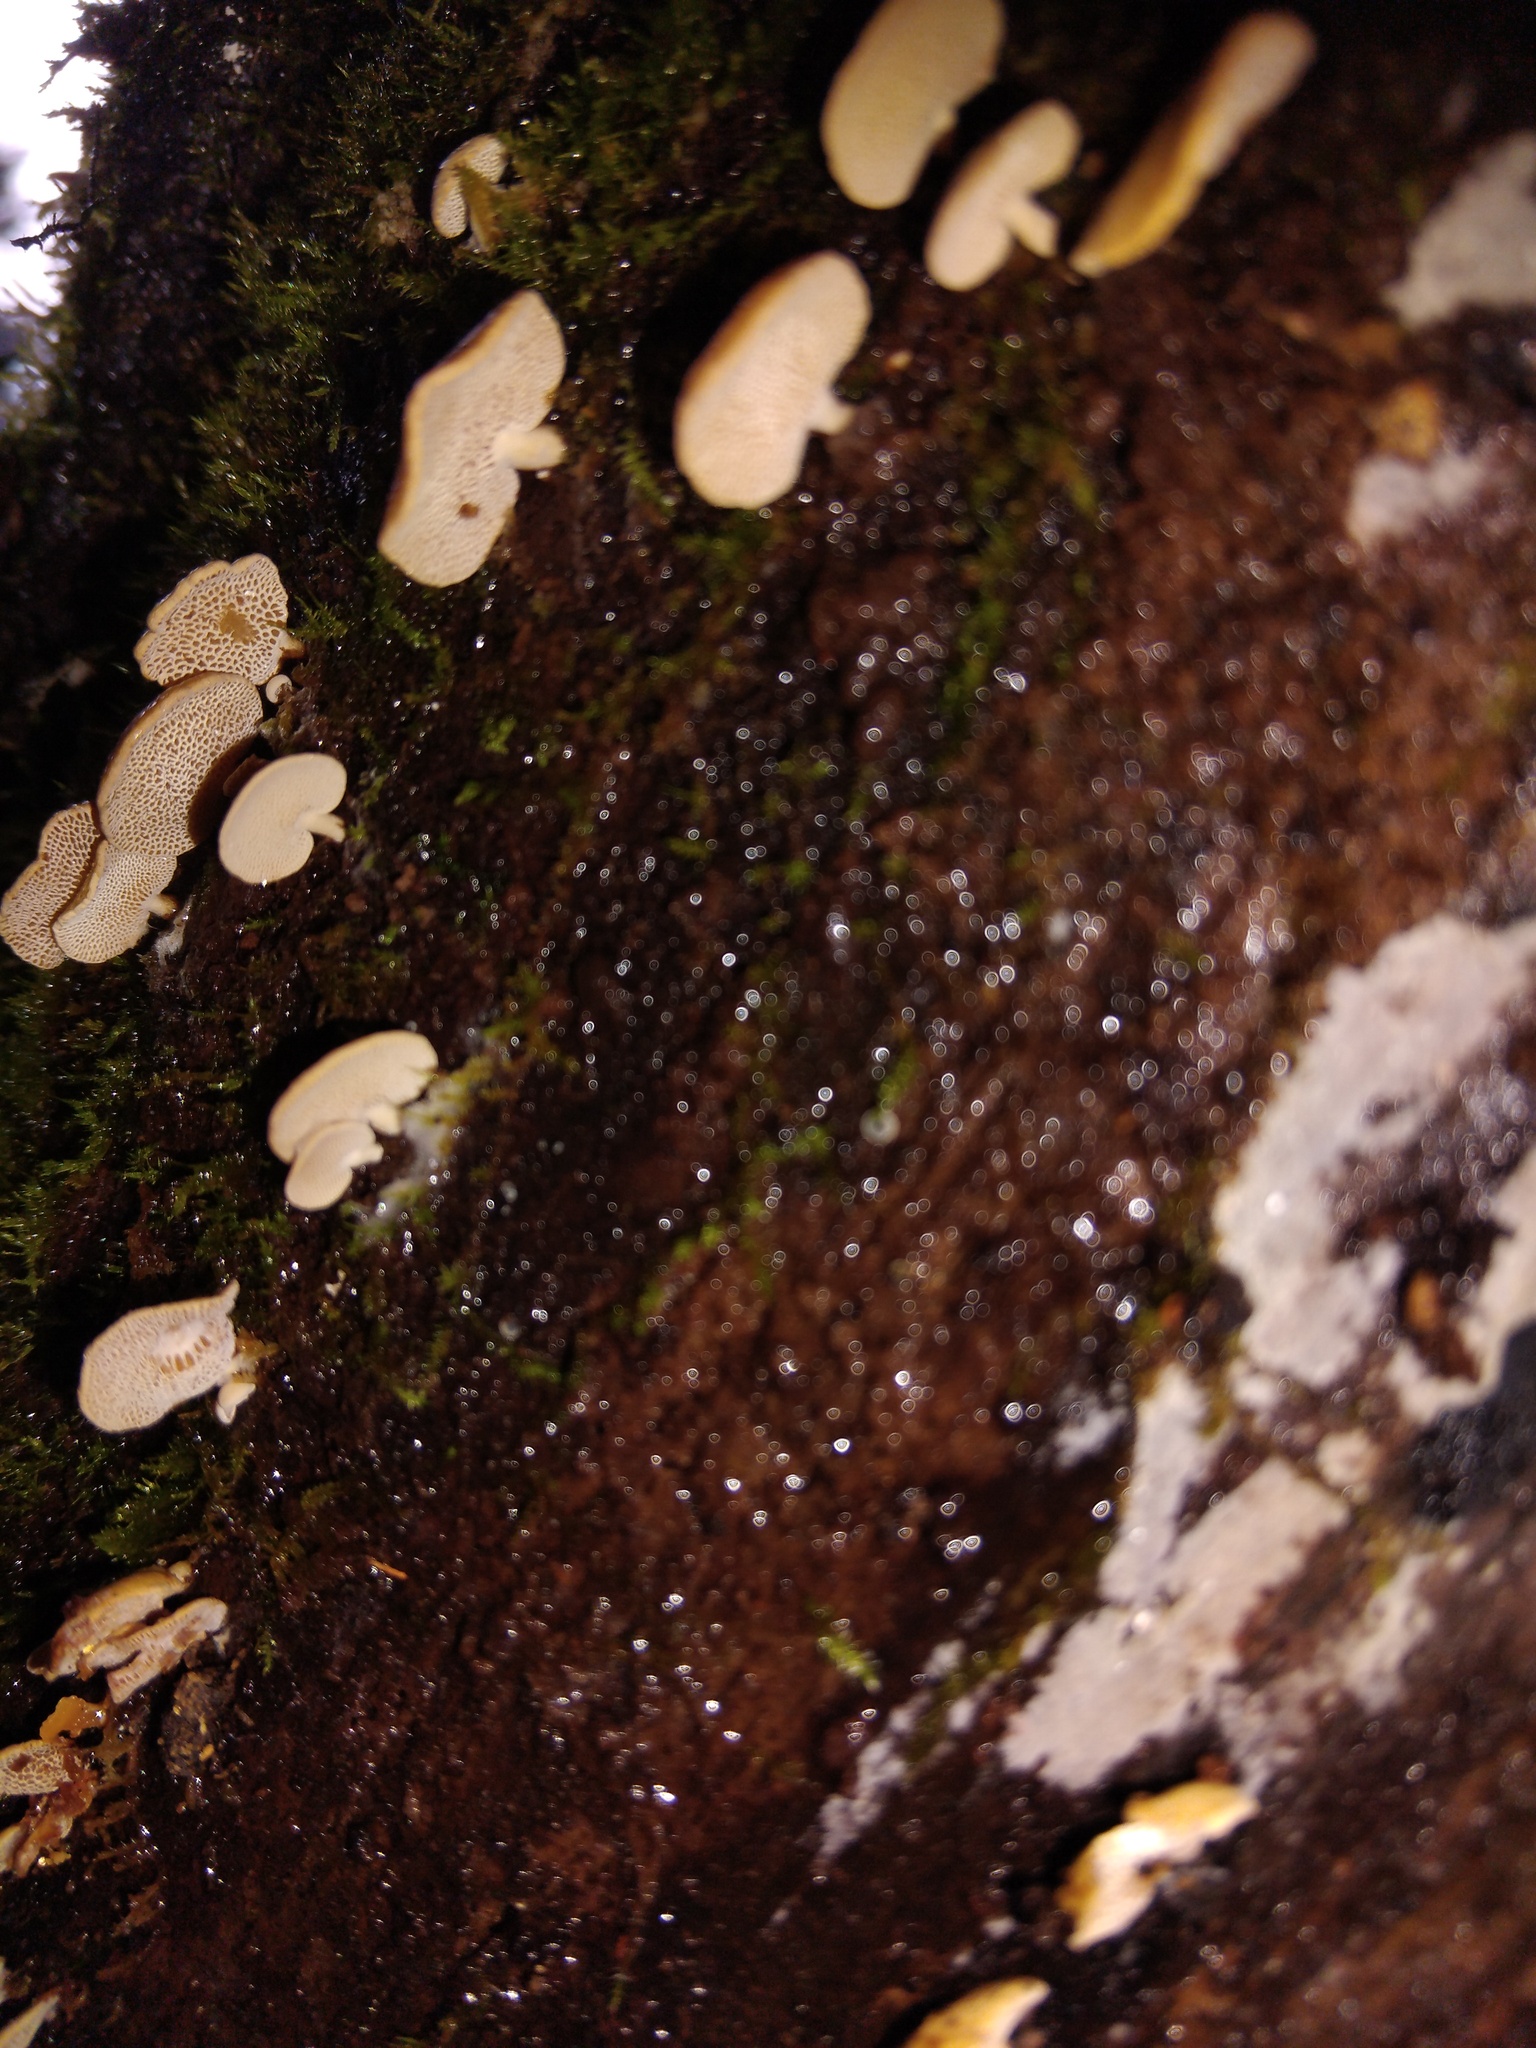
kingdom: Fungi
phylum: Basidiomycota
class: Agaricomycetes
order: Agaricales
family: Mycenaceae
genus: Panellus
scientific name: Panellus luxfilamentus
